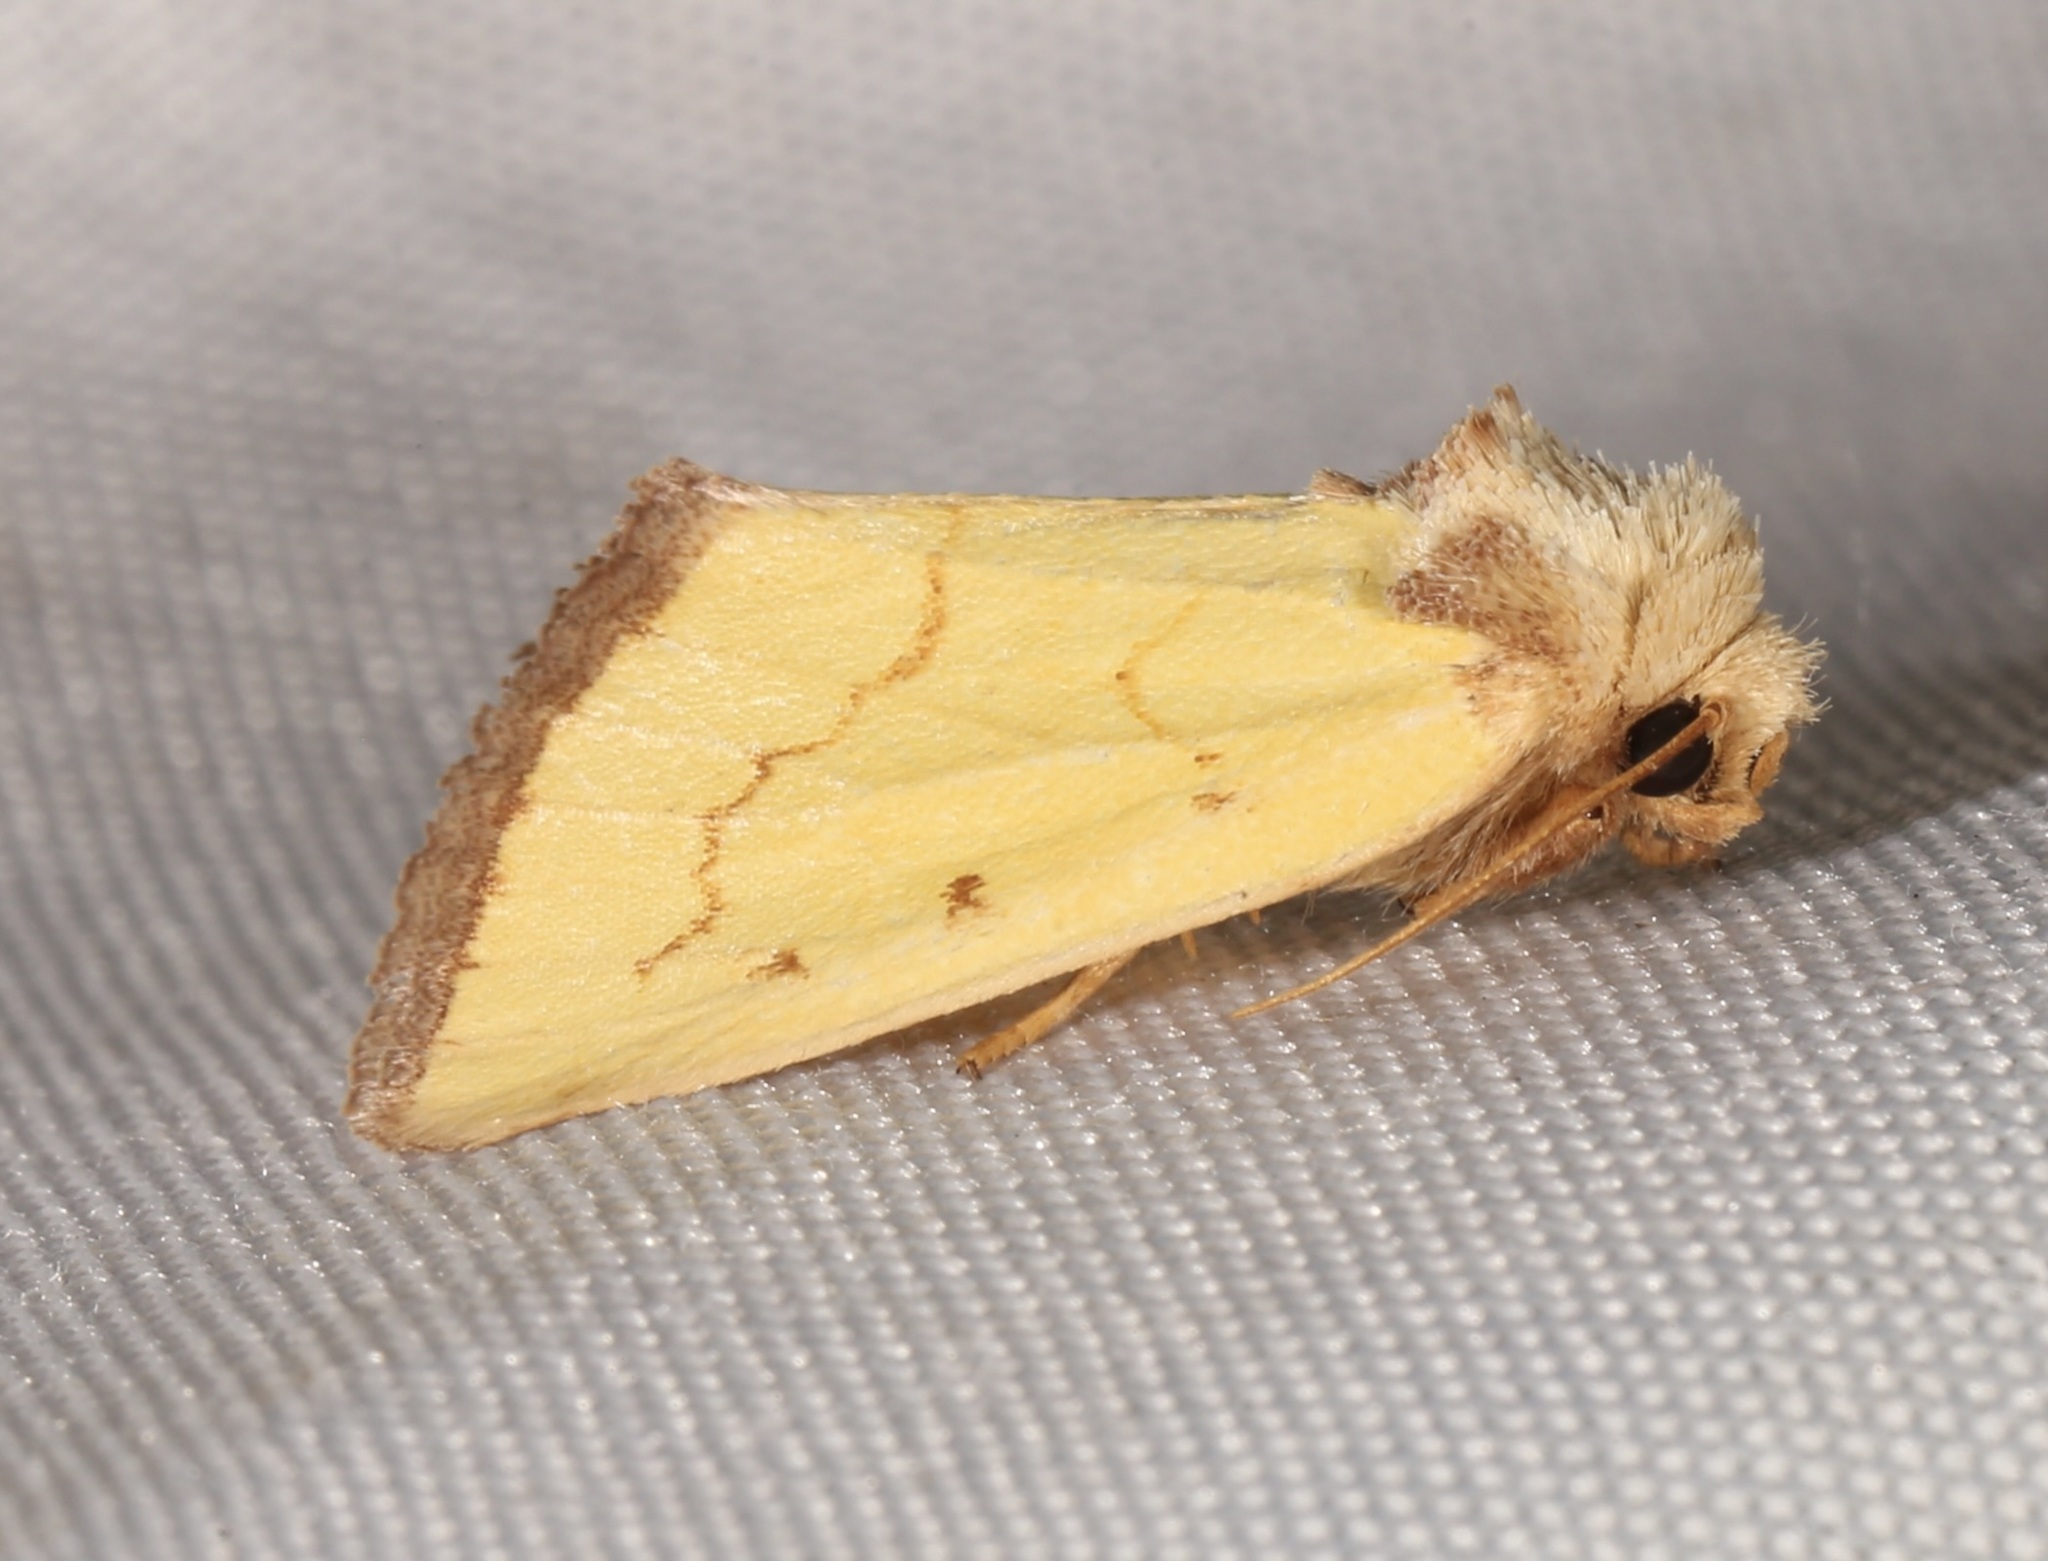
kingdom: Animalia
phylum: Arthropoda
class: Insecta
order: Lepidoptera
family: Noctuidae
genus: Nocloa
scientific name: Nocloa aliaga
